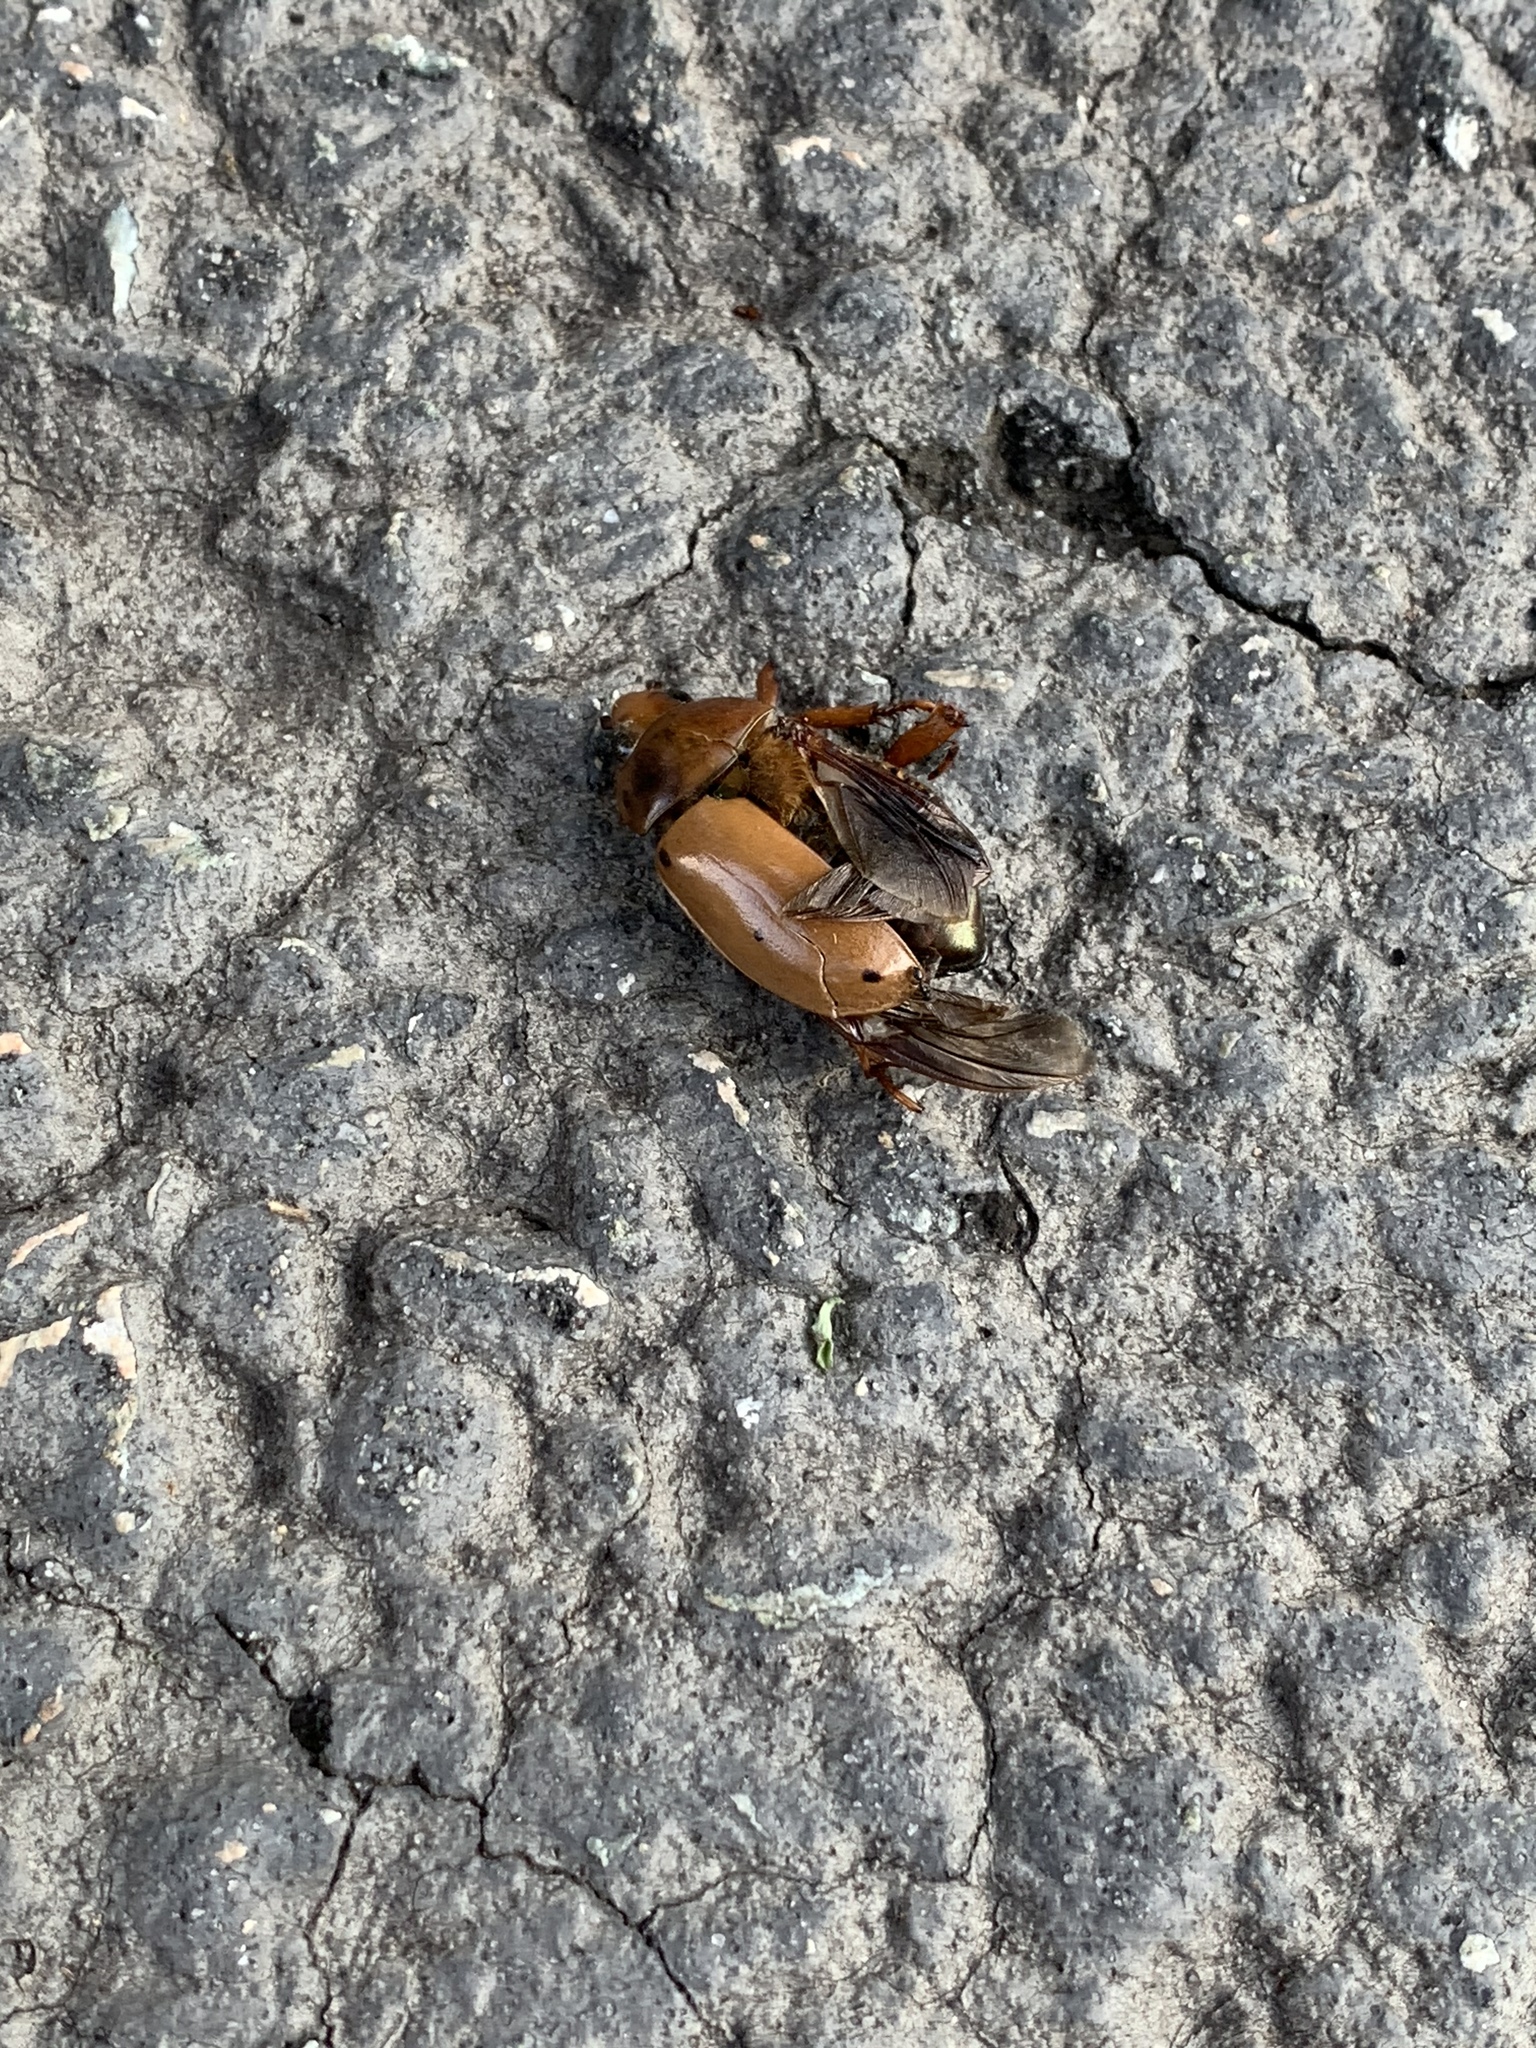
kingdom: Animalia
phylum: Arthropoda
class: Insecta
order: Coleoptera
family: Scarabaeidae
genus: Pelidnota
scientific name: Pelidnota punctata
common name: Grapevine beetle
